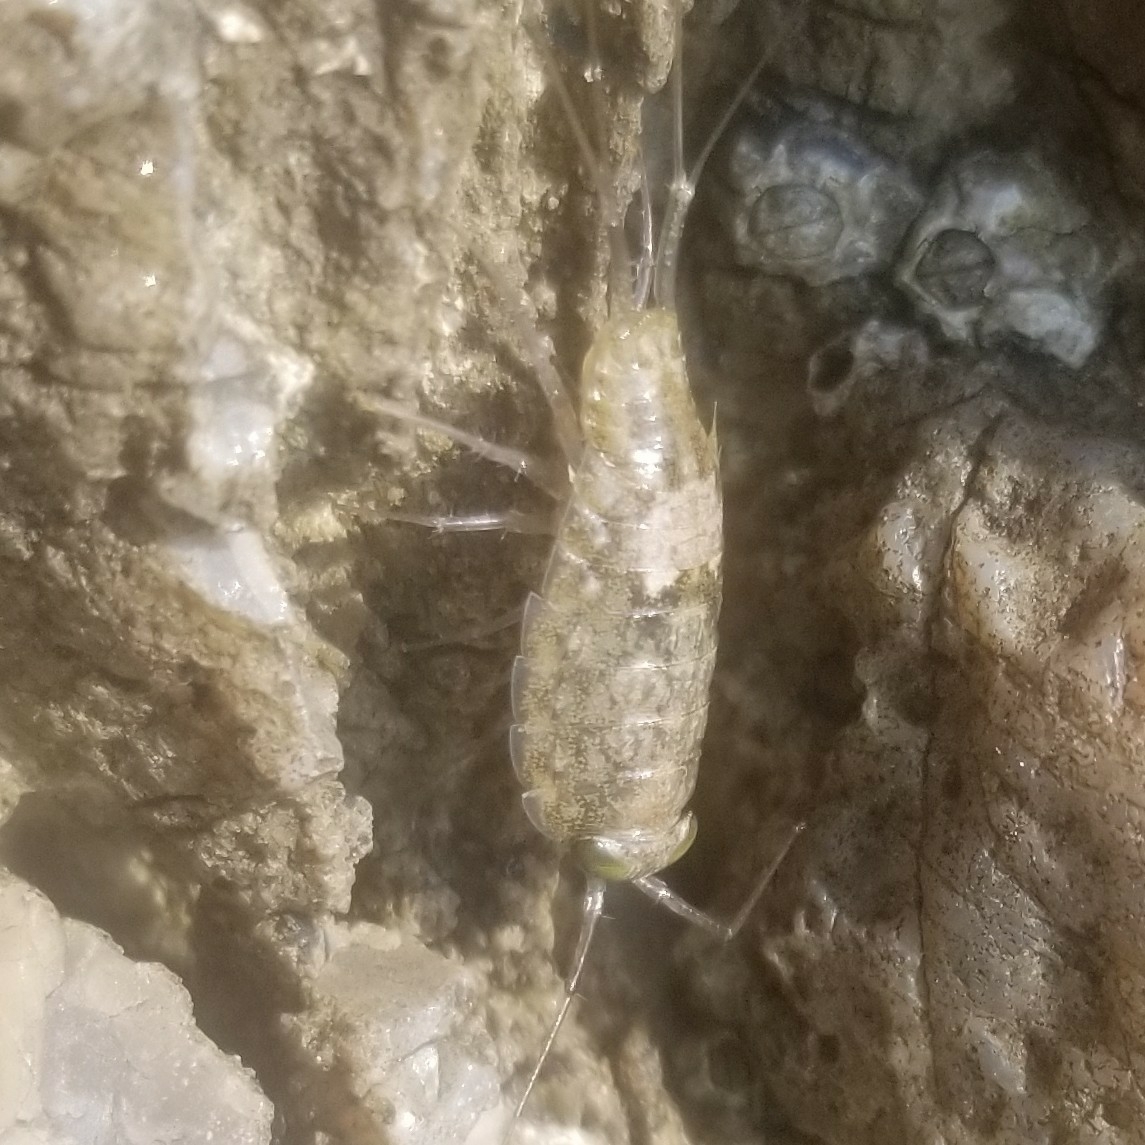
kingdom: Animalia
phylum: Arthropoda
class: Malacostraca
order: Isopoda
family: Ligiidae
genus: Ligia
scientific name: Ligia italica
